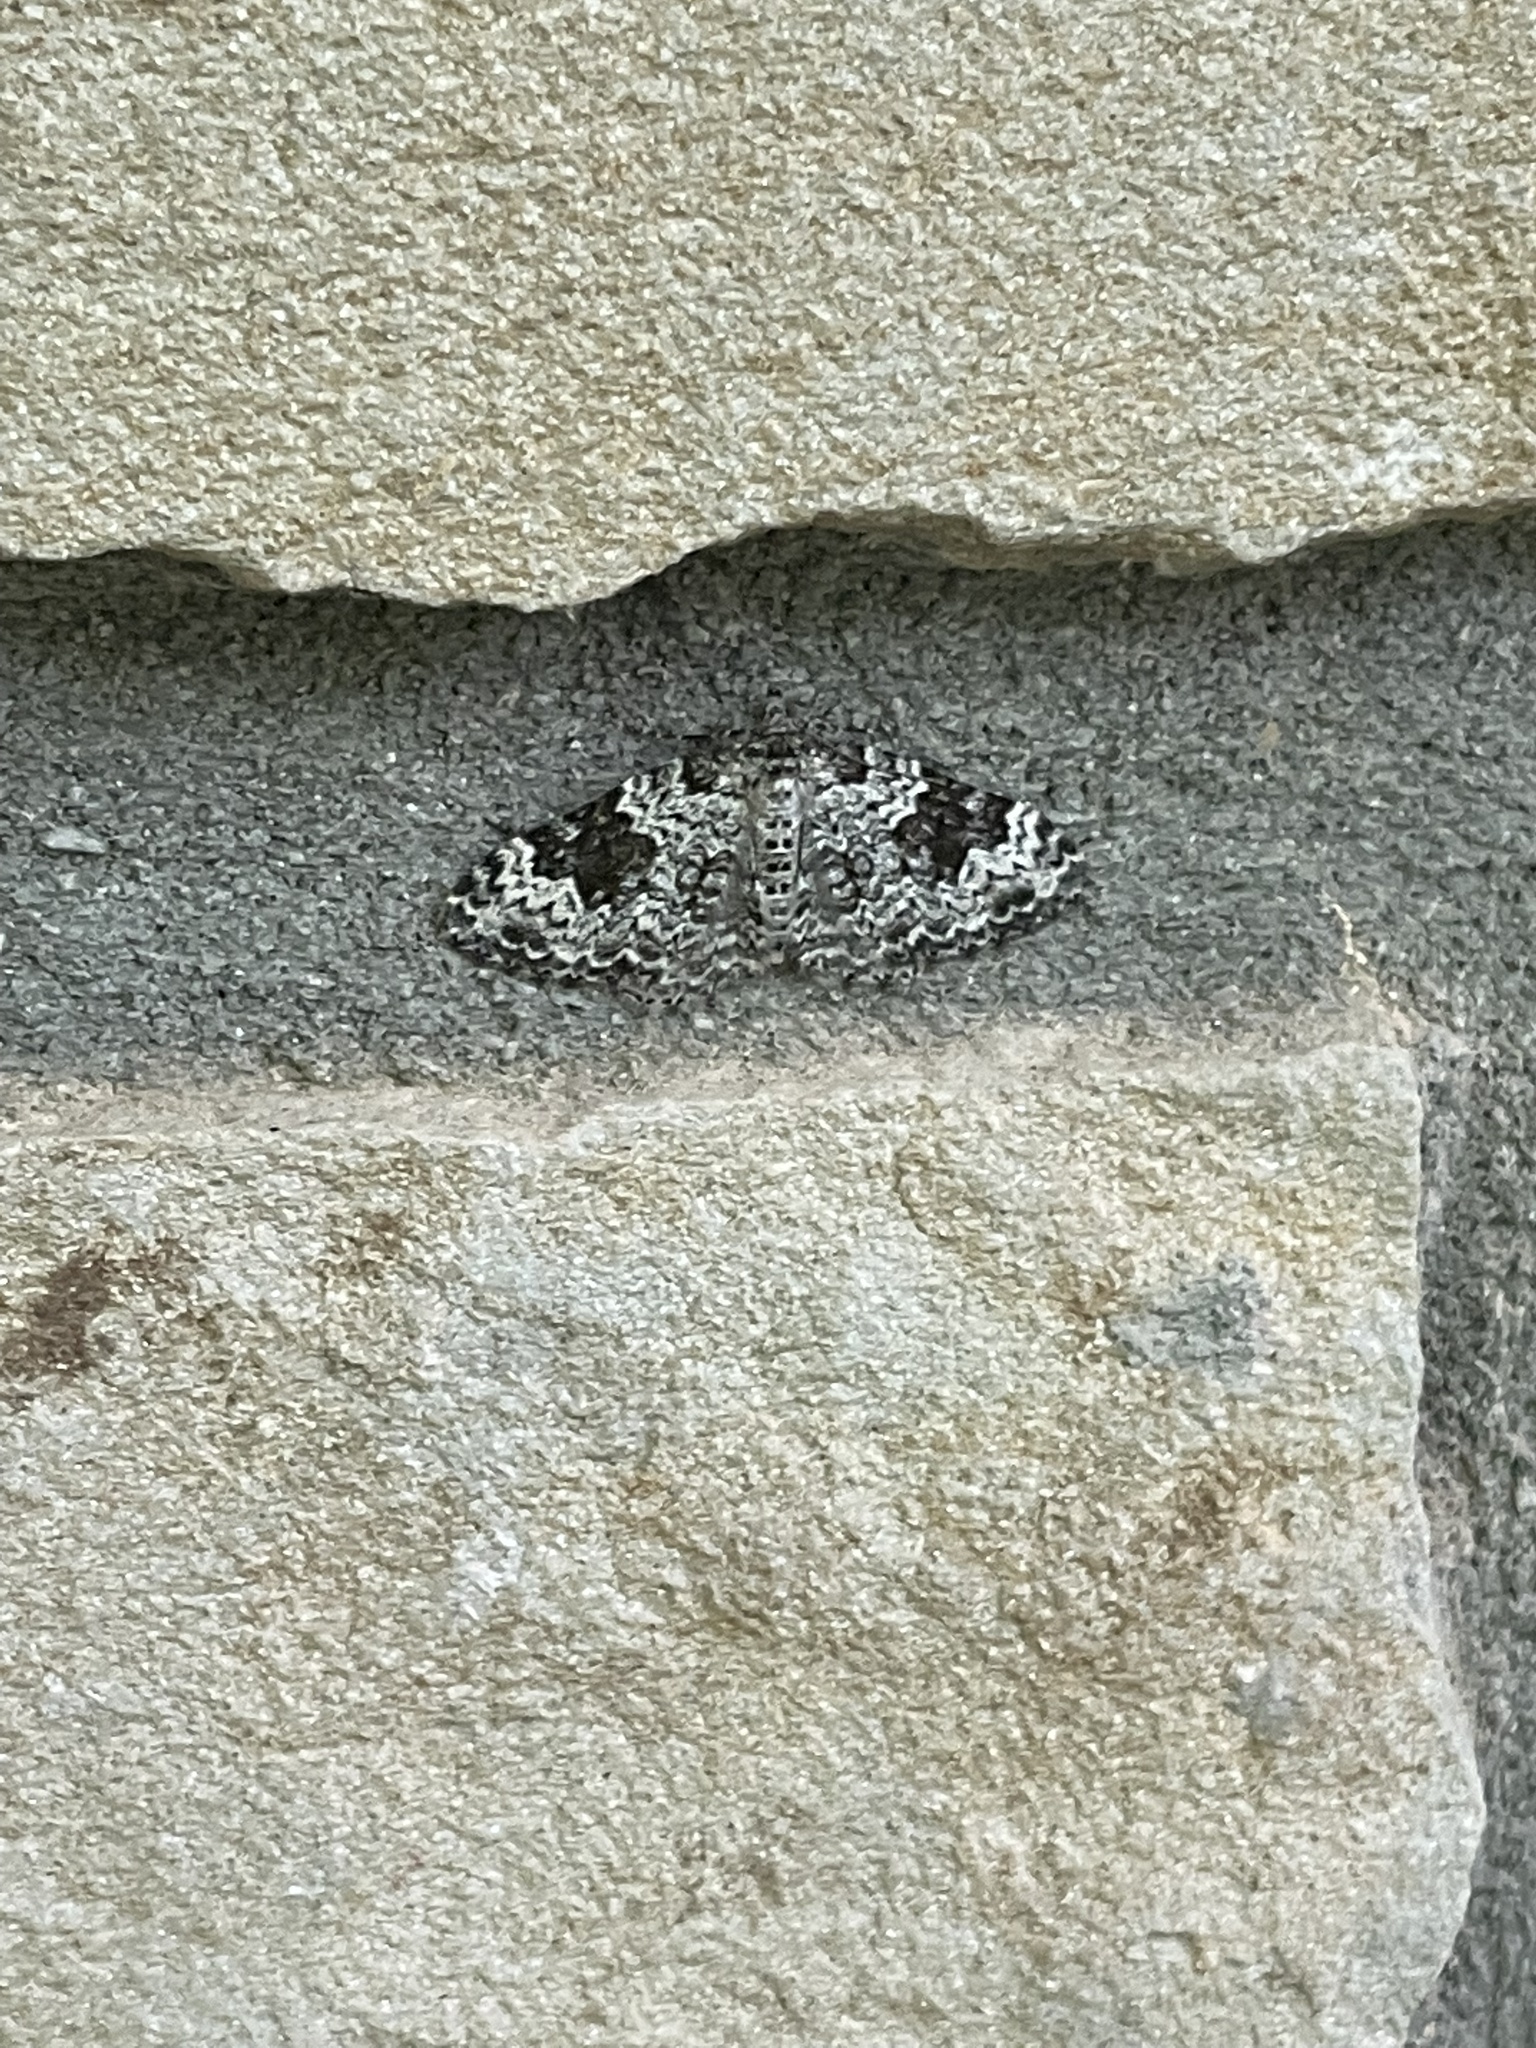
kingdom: Animalia
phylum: Arthropoda
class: Insecta
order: Lepidoptera
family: Geometridae
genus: Xanthorhoe
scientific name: Xanthorhoe iduata
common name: Broken-banded carpet
